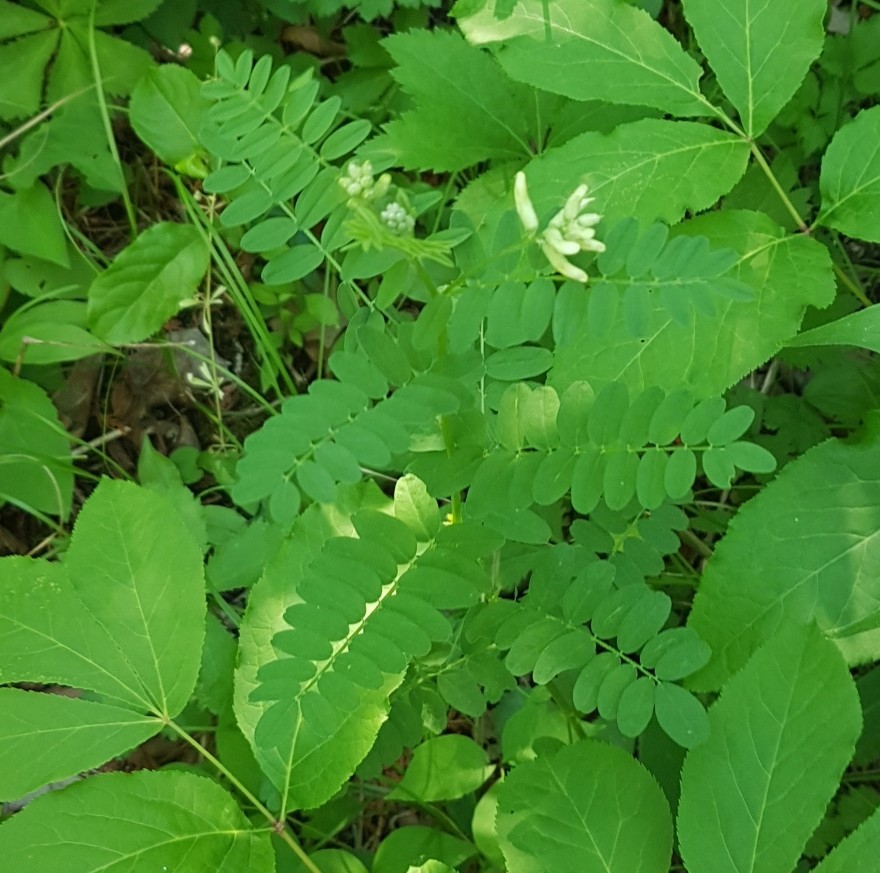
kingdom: Plantae
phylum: Tracheophyta
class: Magnoliopsida
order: Fabales
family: Fabaceae
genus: Astragalus
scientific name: Astragalus canadensis
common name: Canada milk-vetch
